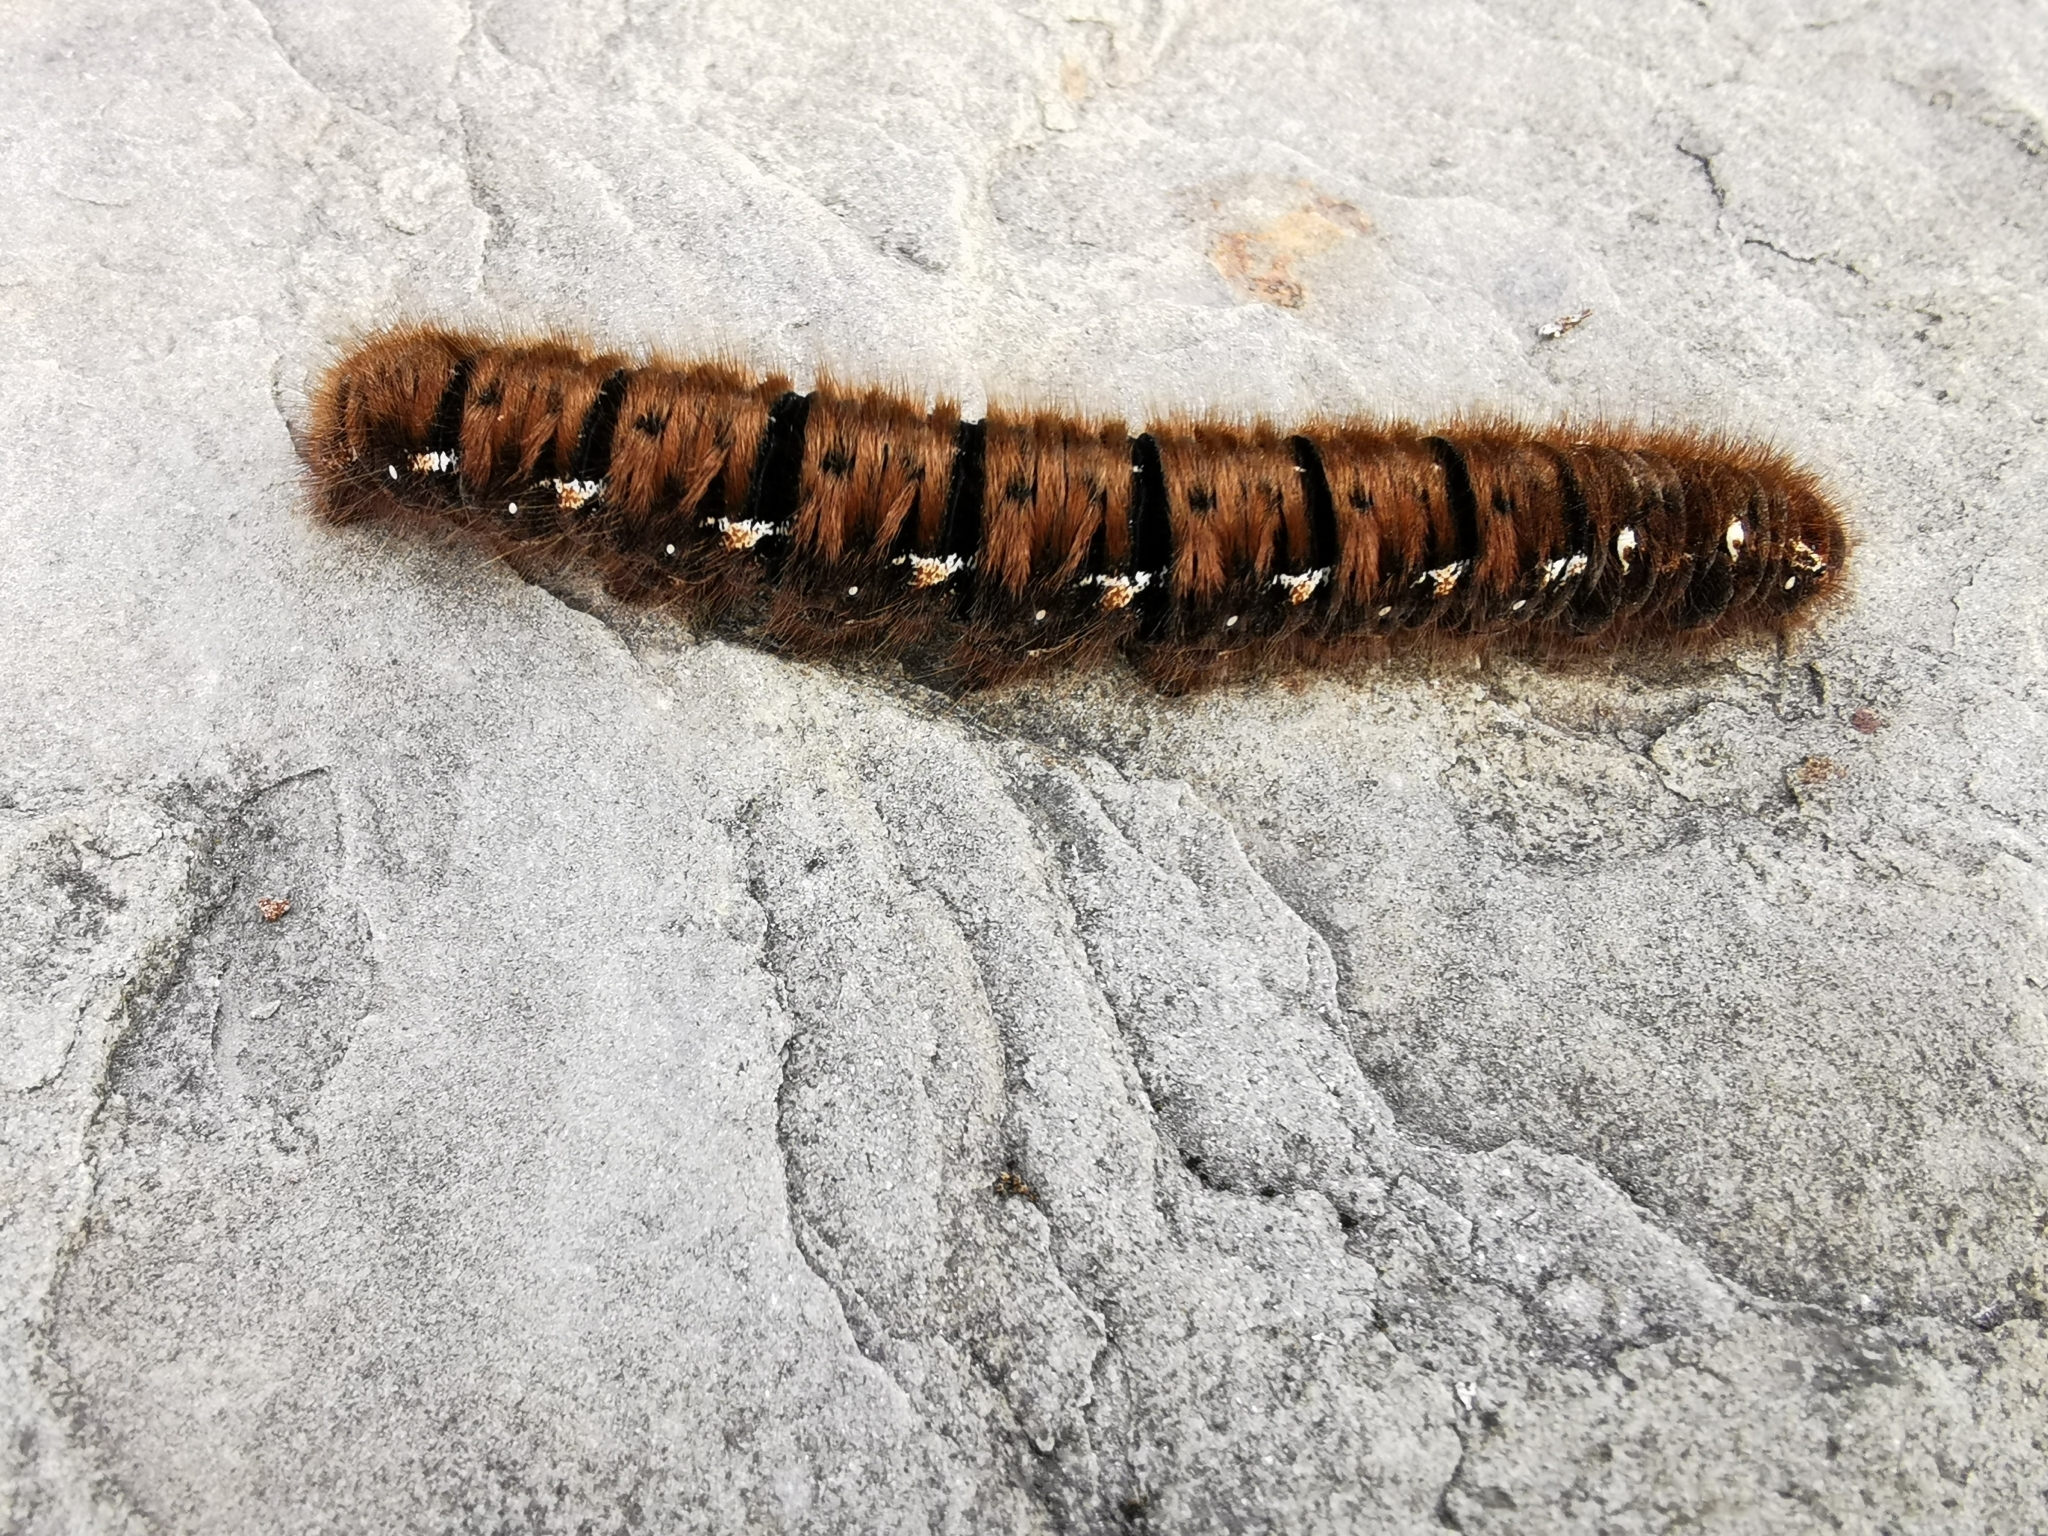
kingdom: Animalia
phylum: Arthropoda
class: Insecta
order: Lepidoptera
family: Lasiocampidae
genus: Lasiocampa
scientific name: Lasiocampa quercus
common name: Oak eggar
